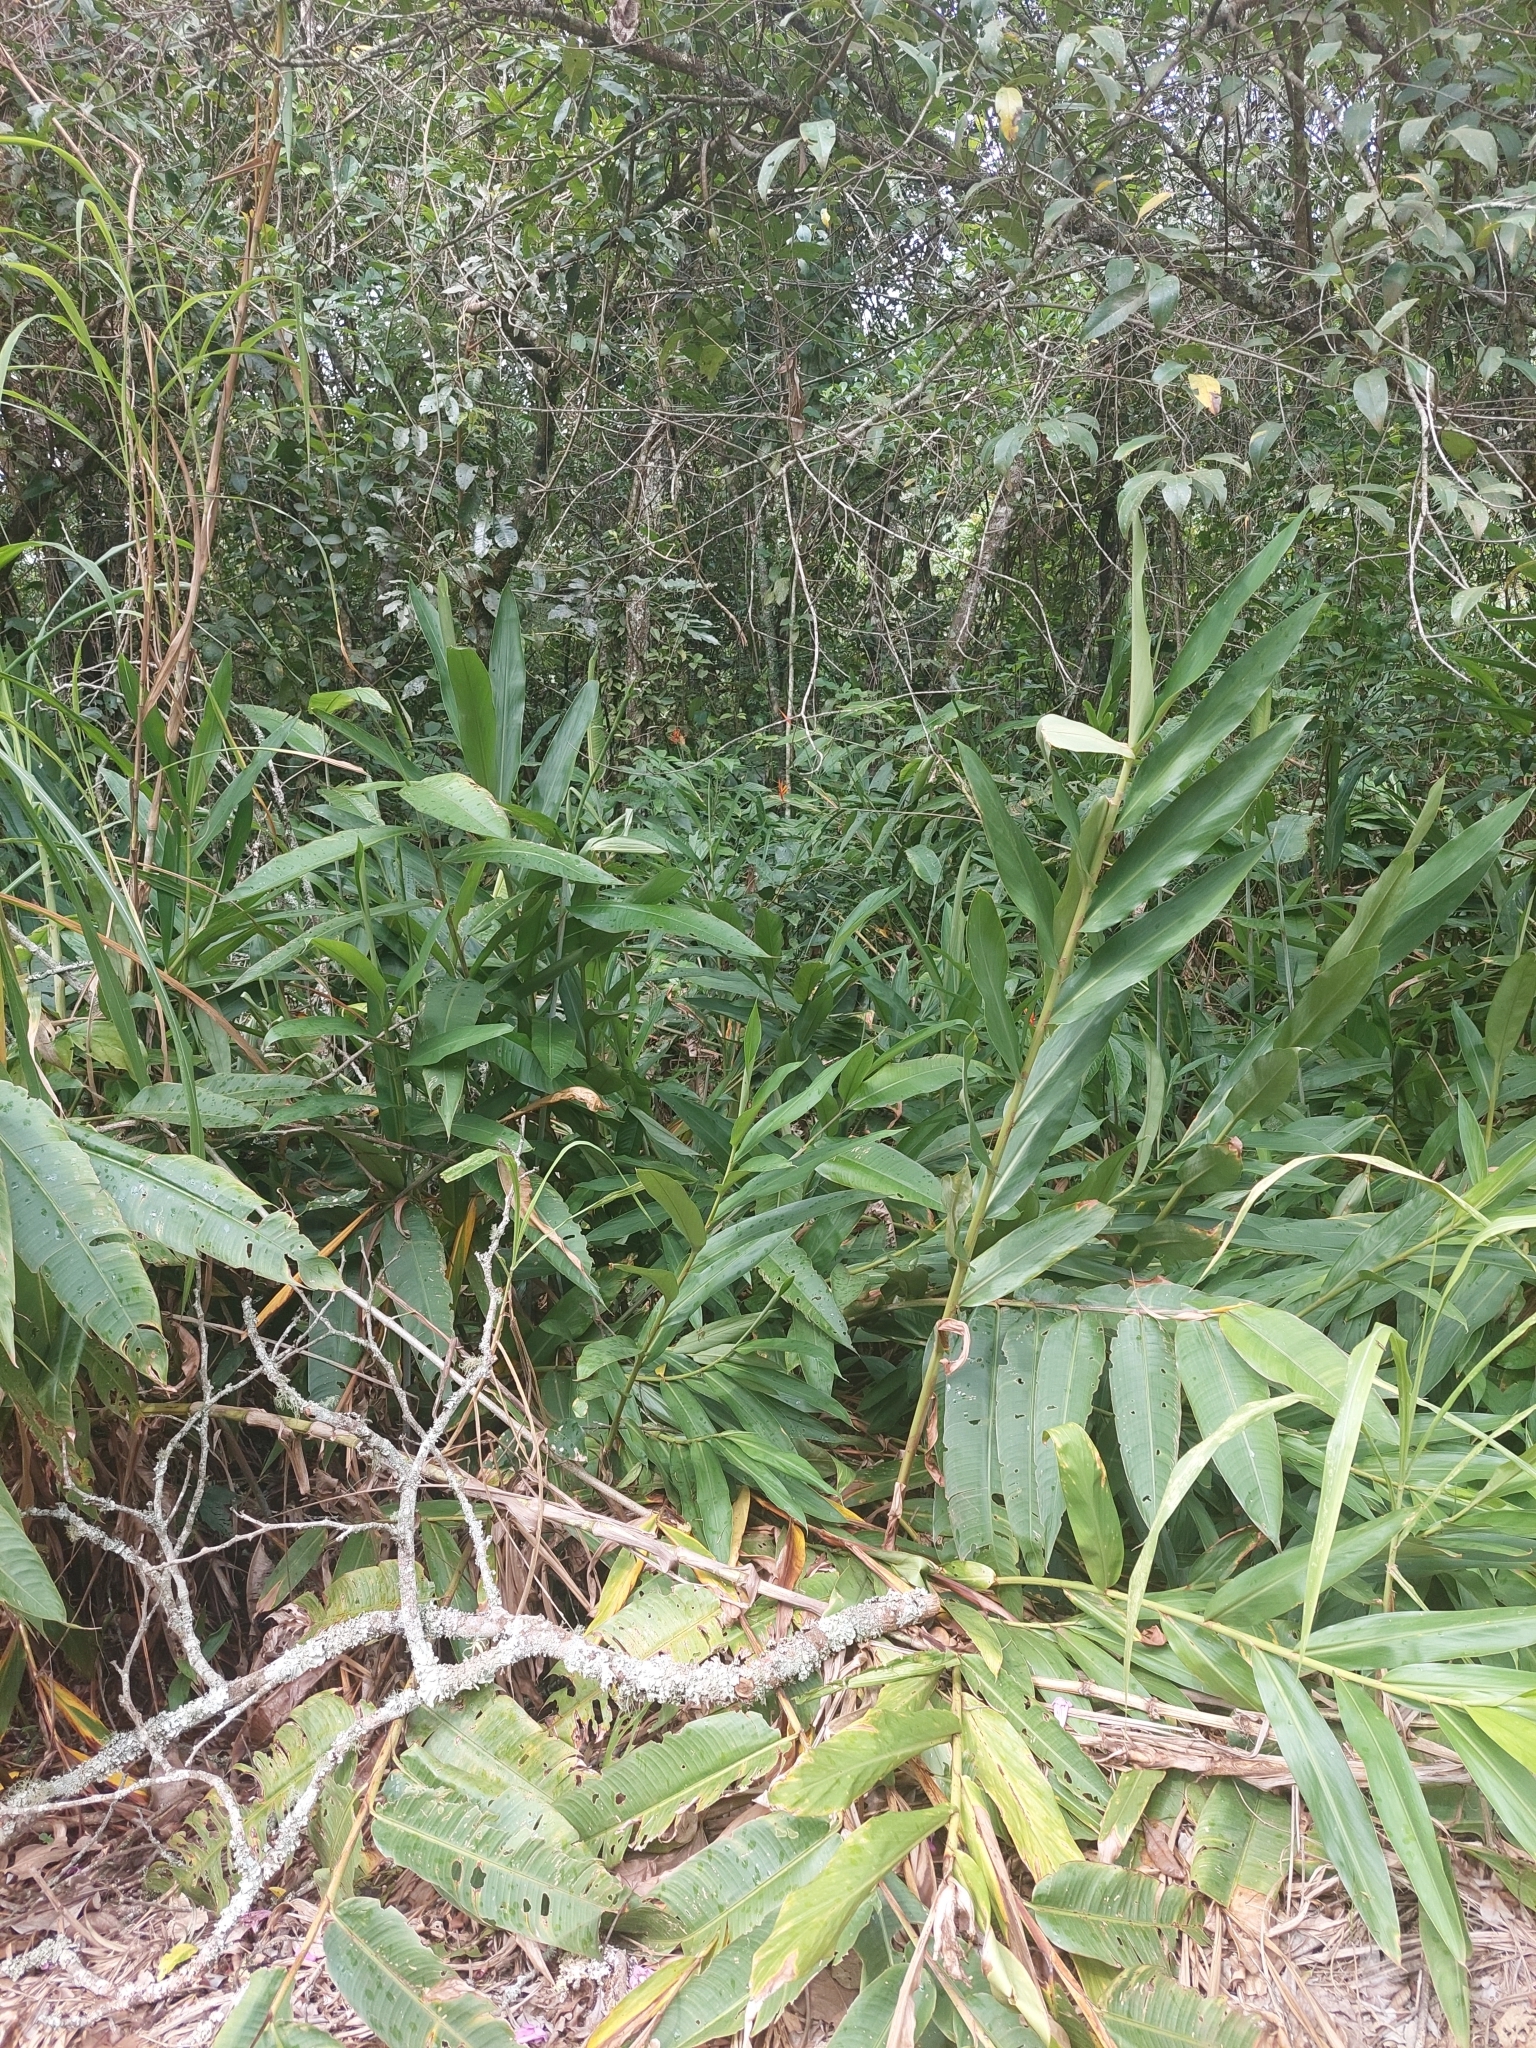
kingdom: Plantae
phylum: Tracheophyta
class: Liliopsida
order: Zingiberales
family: Zingiberaceae
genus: Hedychium
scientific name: Hedychium coronarium
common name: White garland-lily
